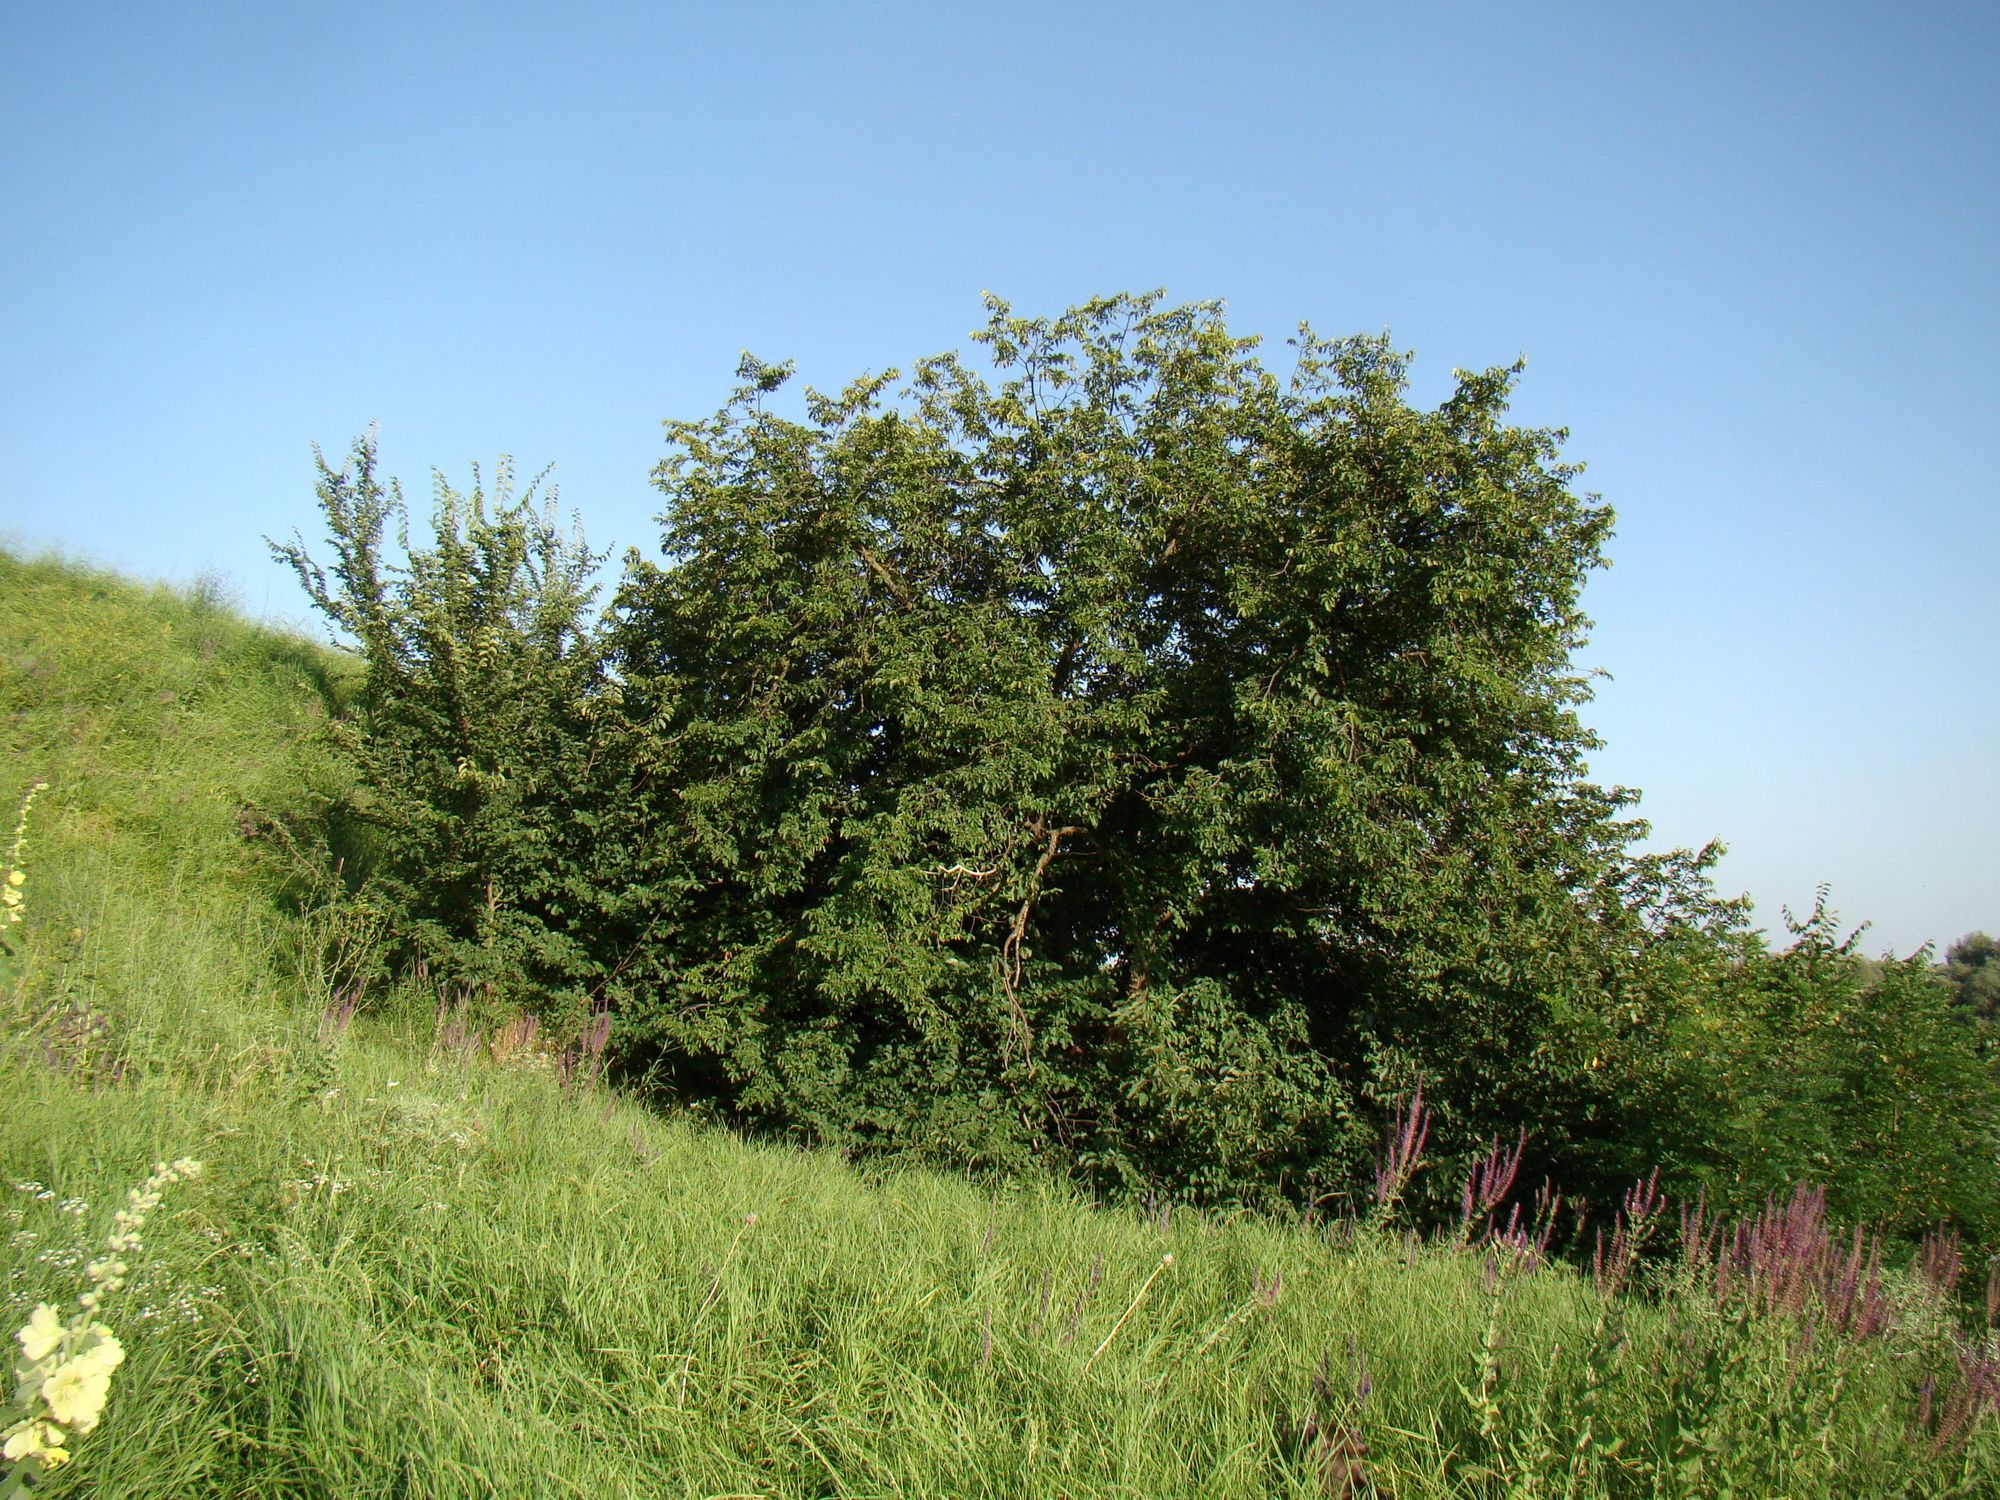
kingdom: Plantae
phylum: Tracheophyta
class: Magnoliopsida
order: Rosales
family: Ulmaceae
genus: Ulmus
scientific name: Ulmus minor
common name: Small-leaved elm
